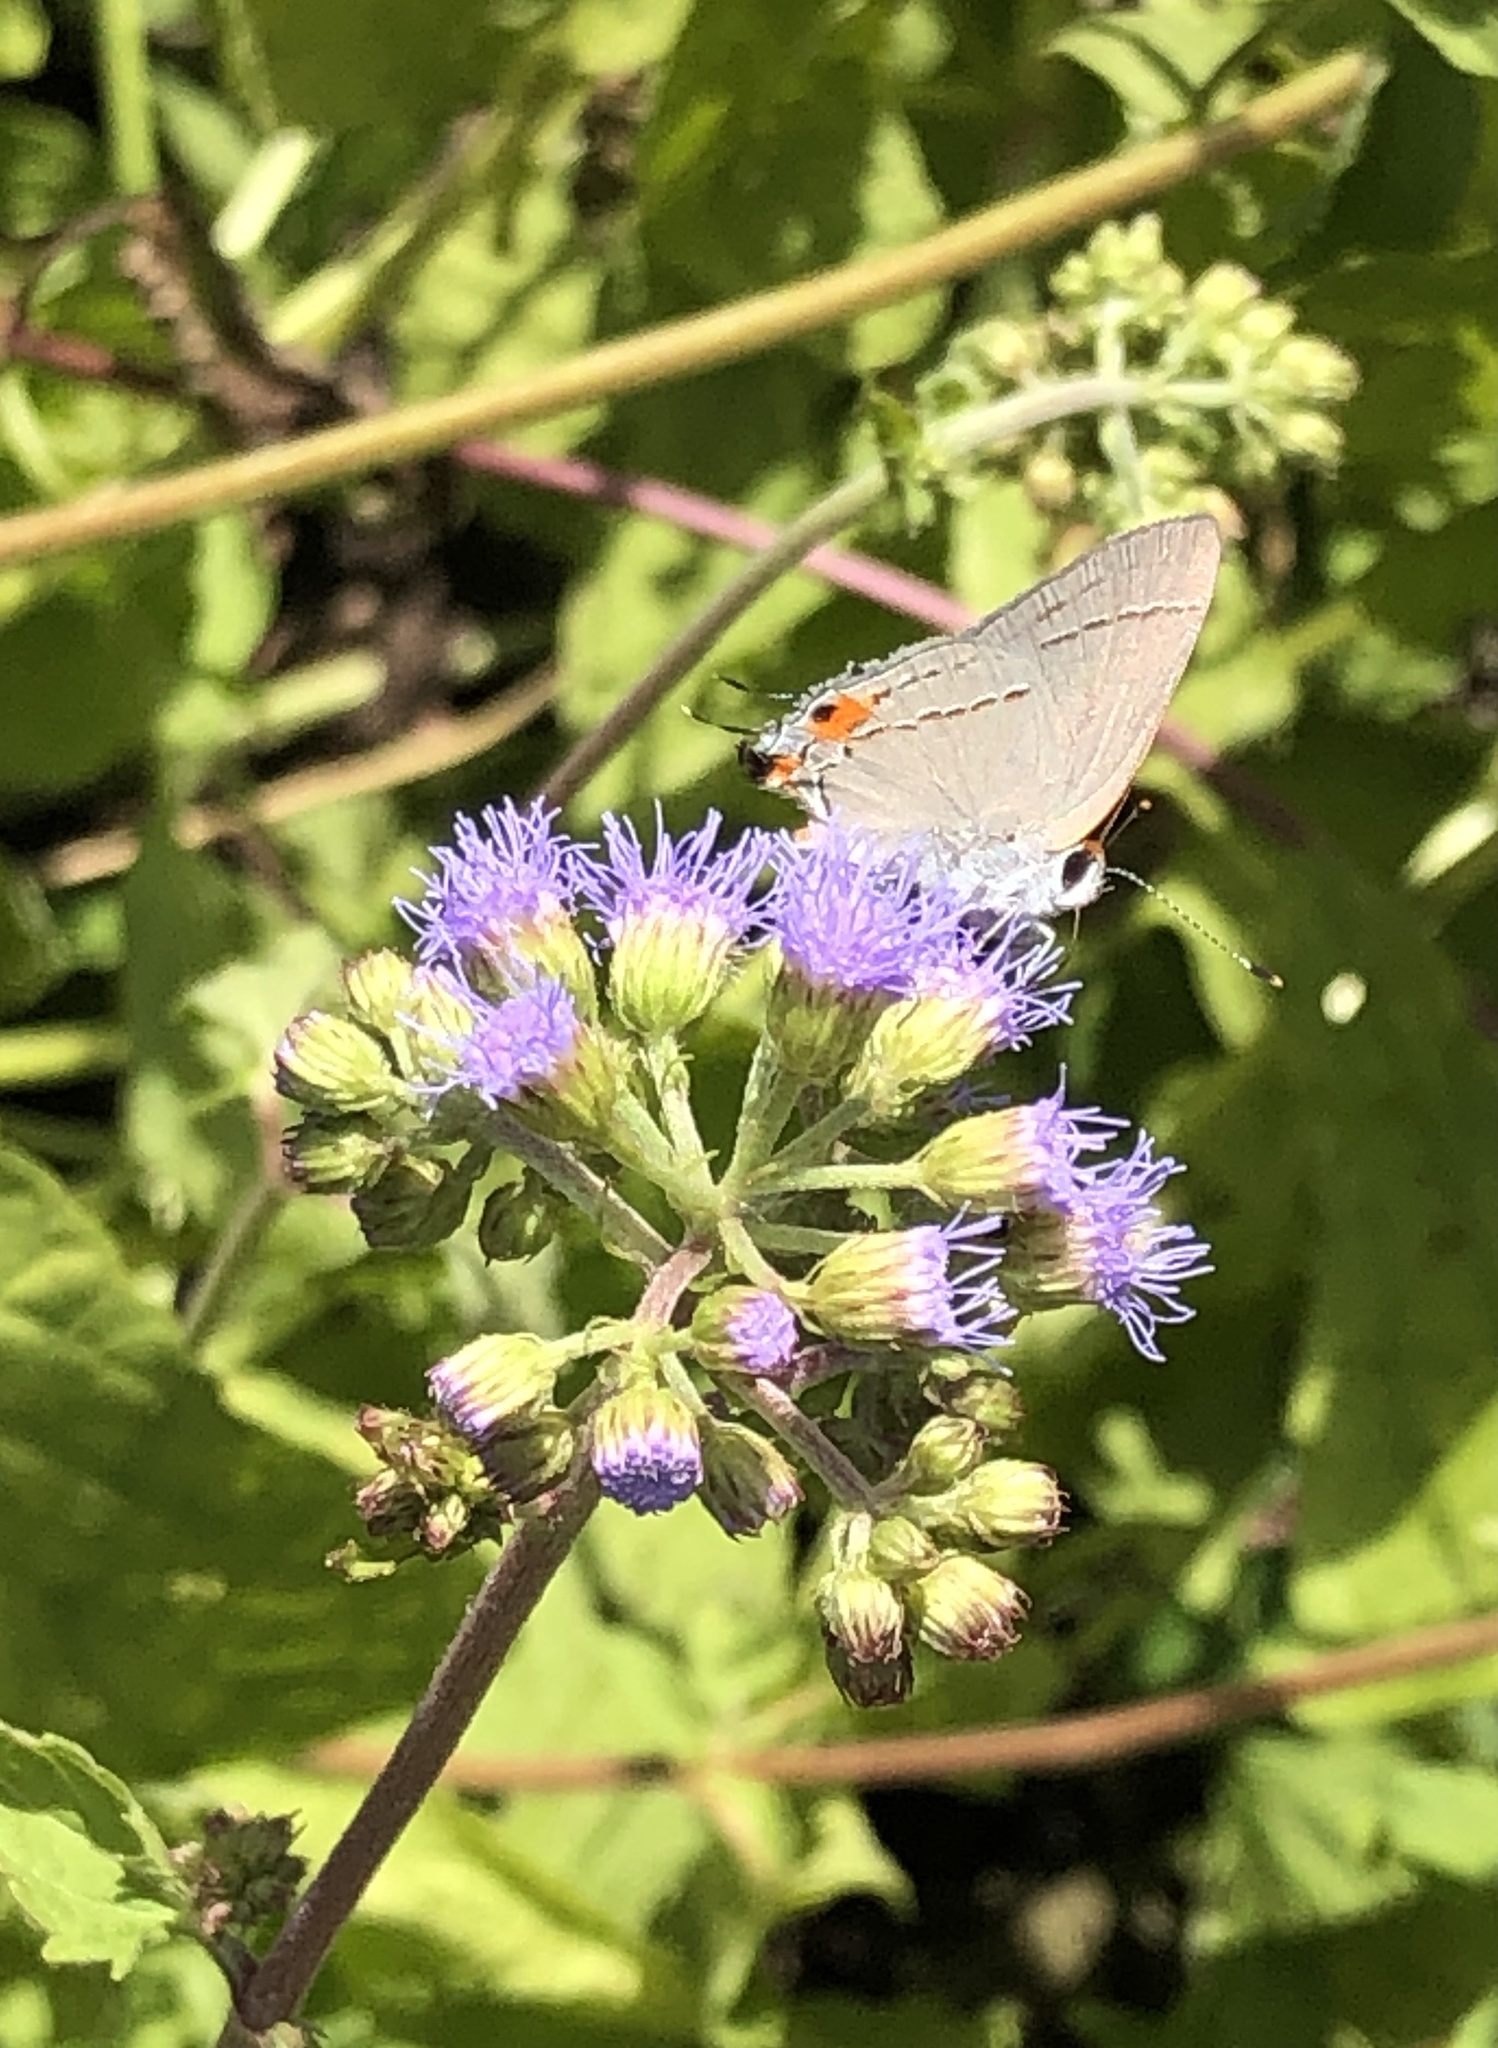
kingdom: Animalia
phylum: Arthropoda
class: Insecta
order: Lepidoptera
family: Lycaenidae
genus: Strymon
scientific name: Strymon melinus
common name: Gray hairstreak
